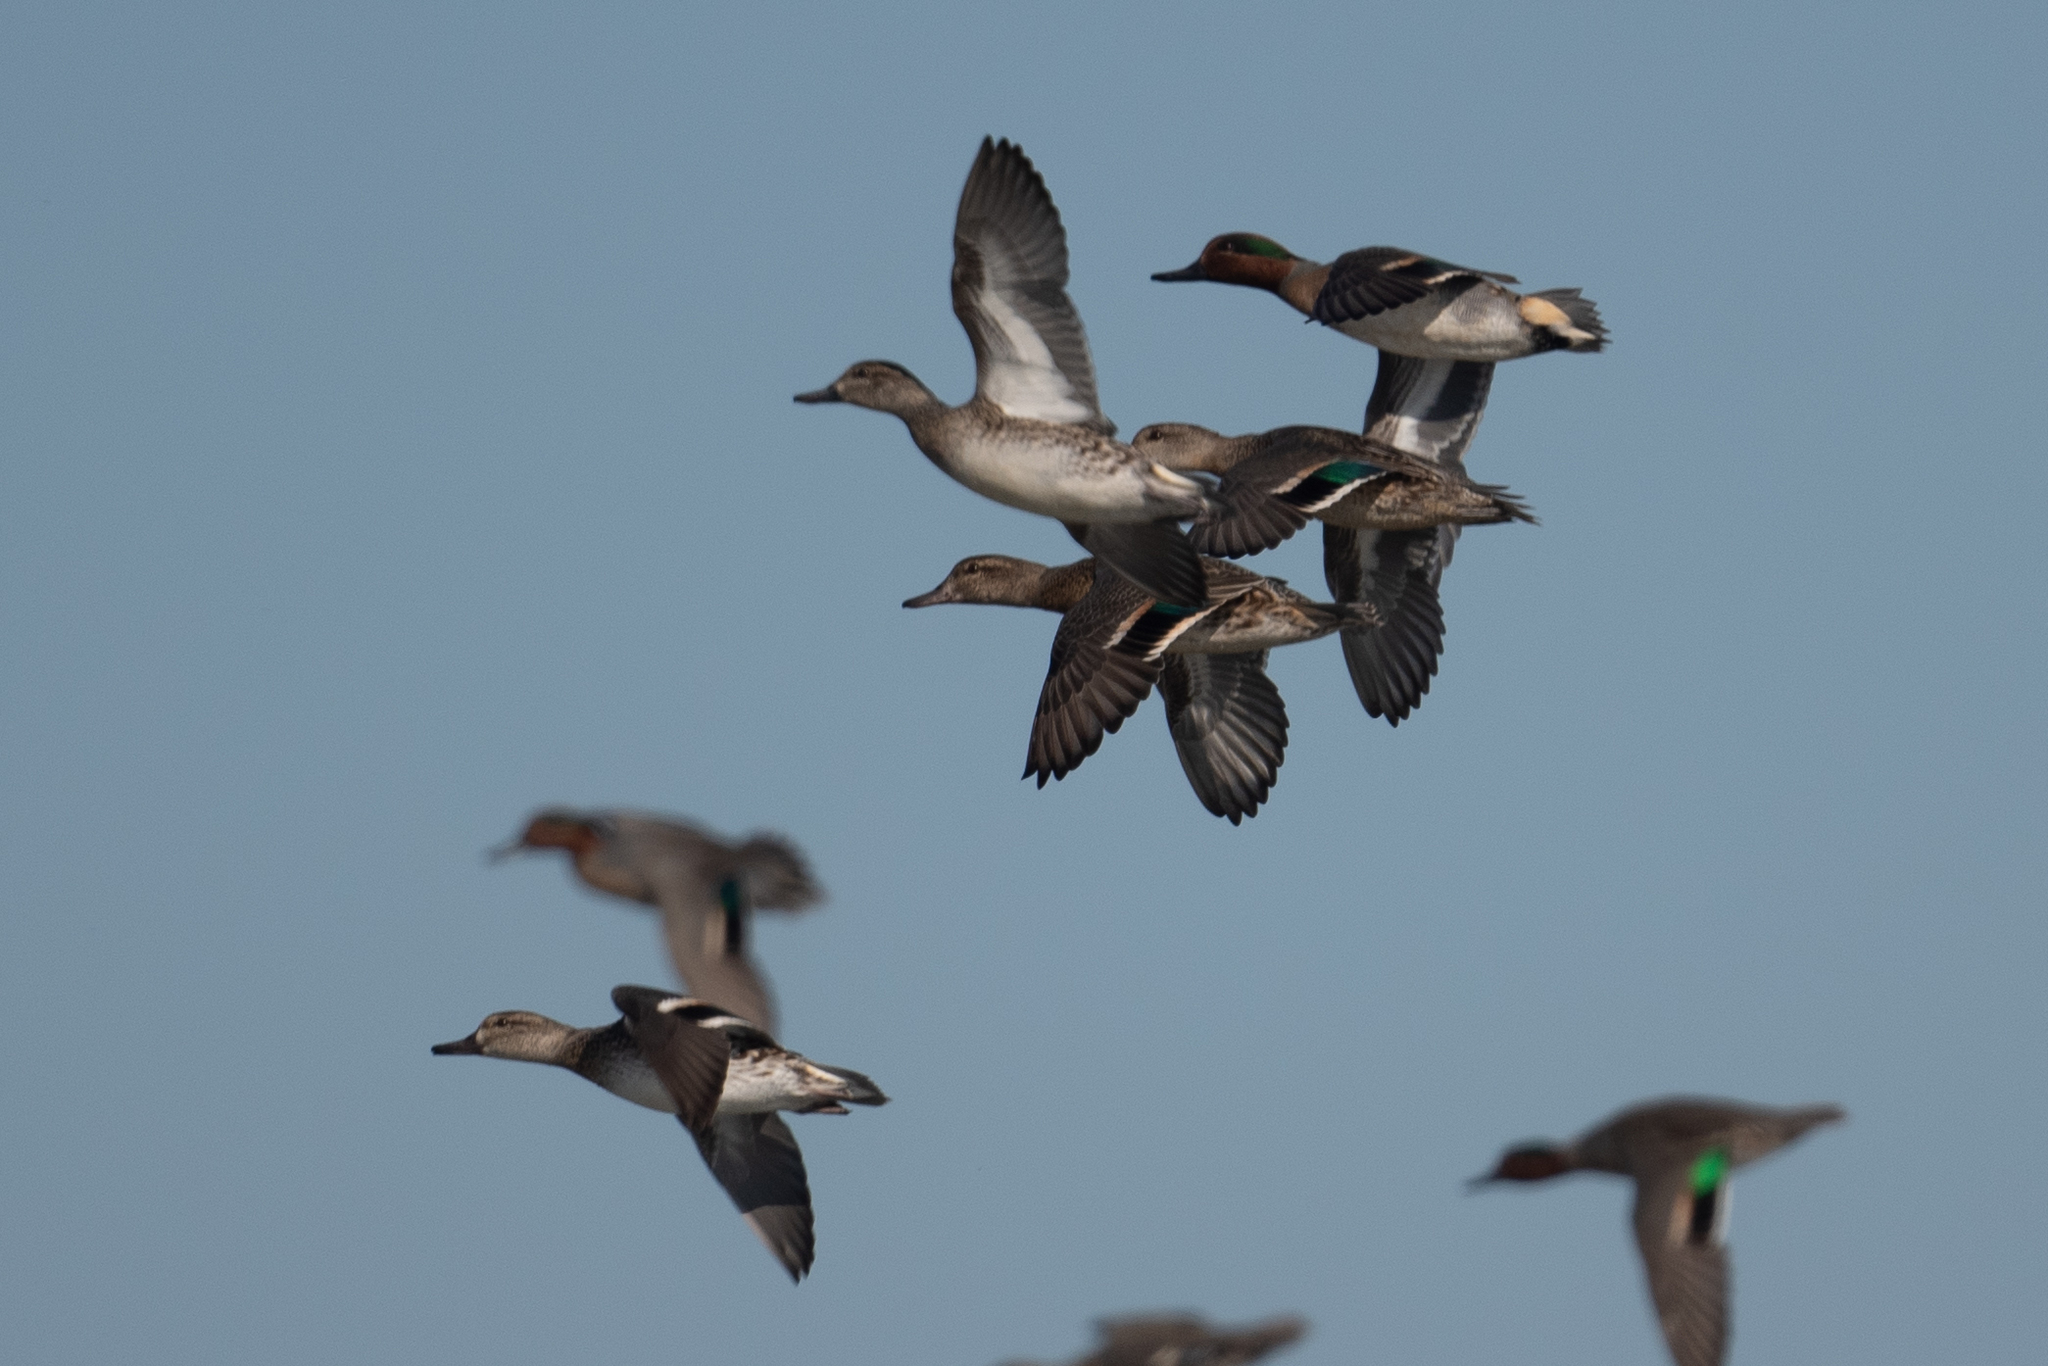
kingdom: Animalia
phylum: Chordata
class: Aves
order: Anseriformes
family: Anatidae
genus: Anas
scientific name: Anas crecca
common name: Eurasian teal
